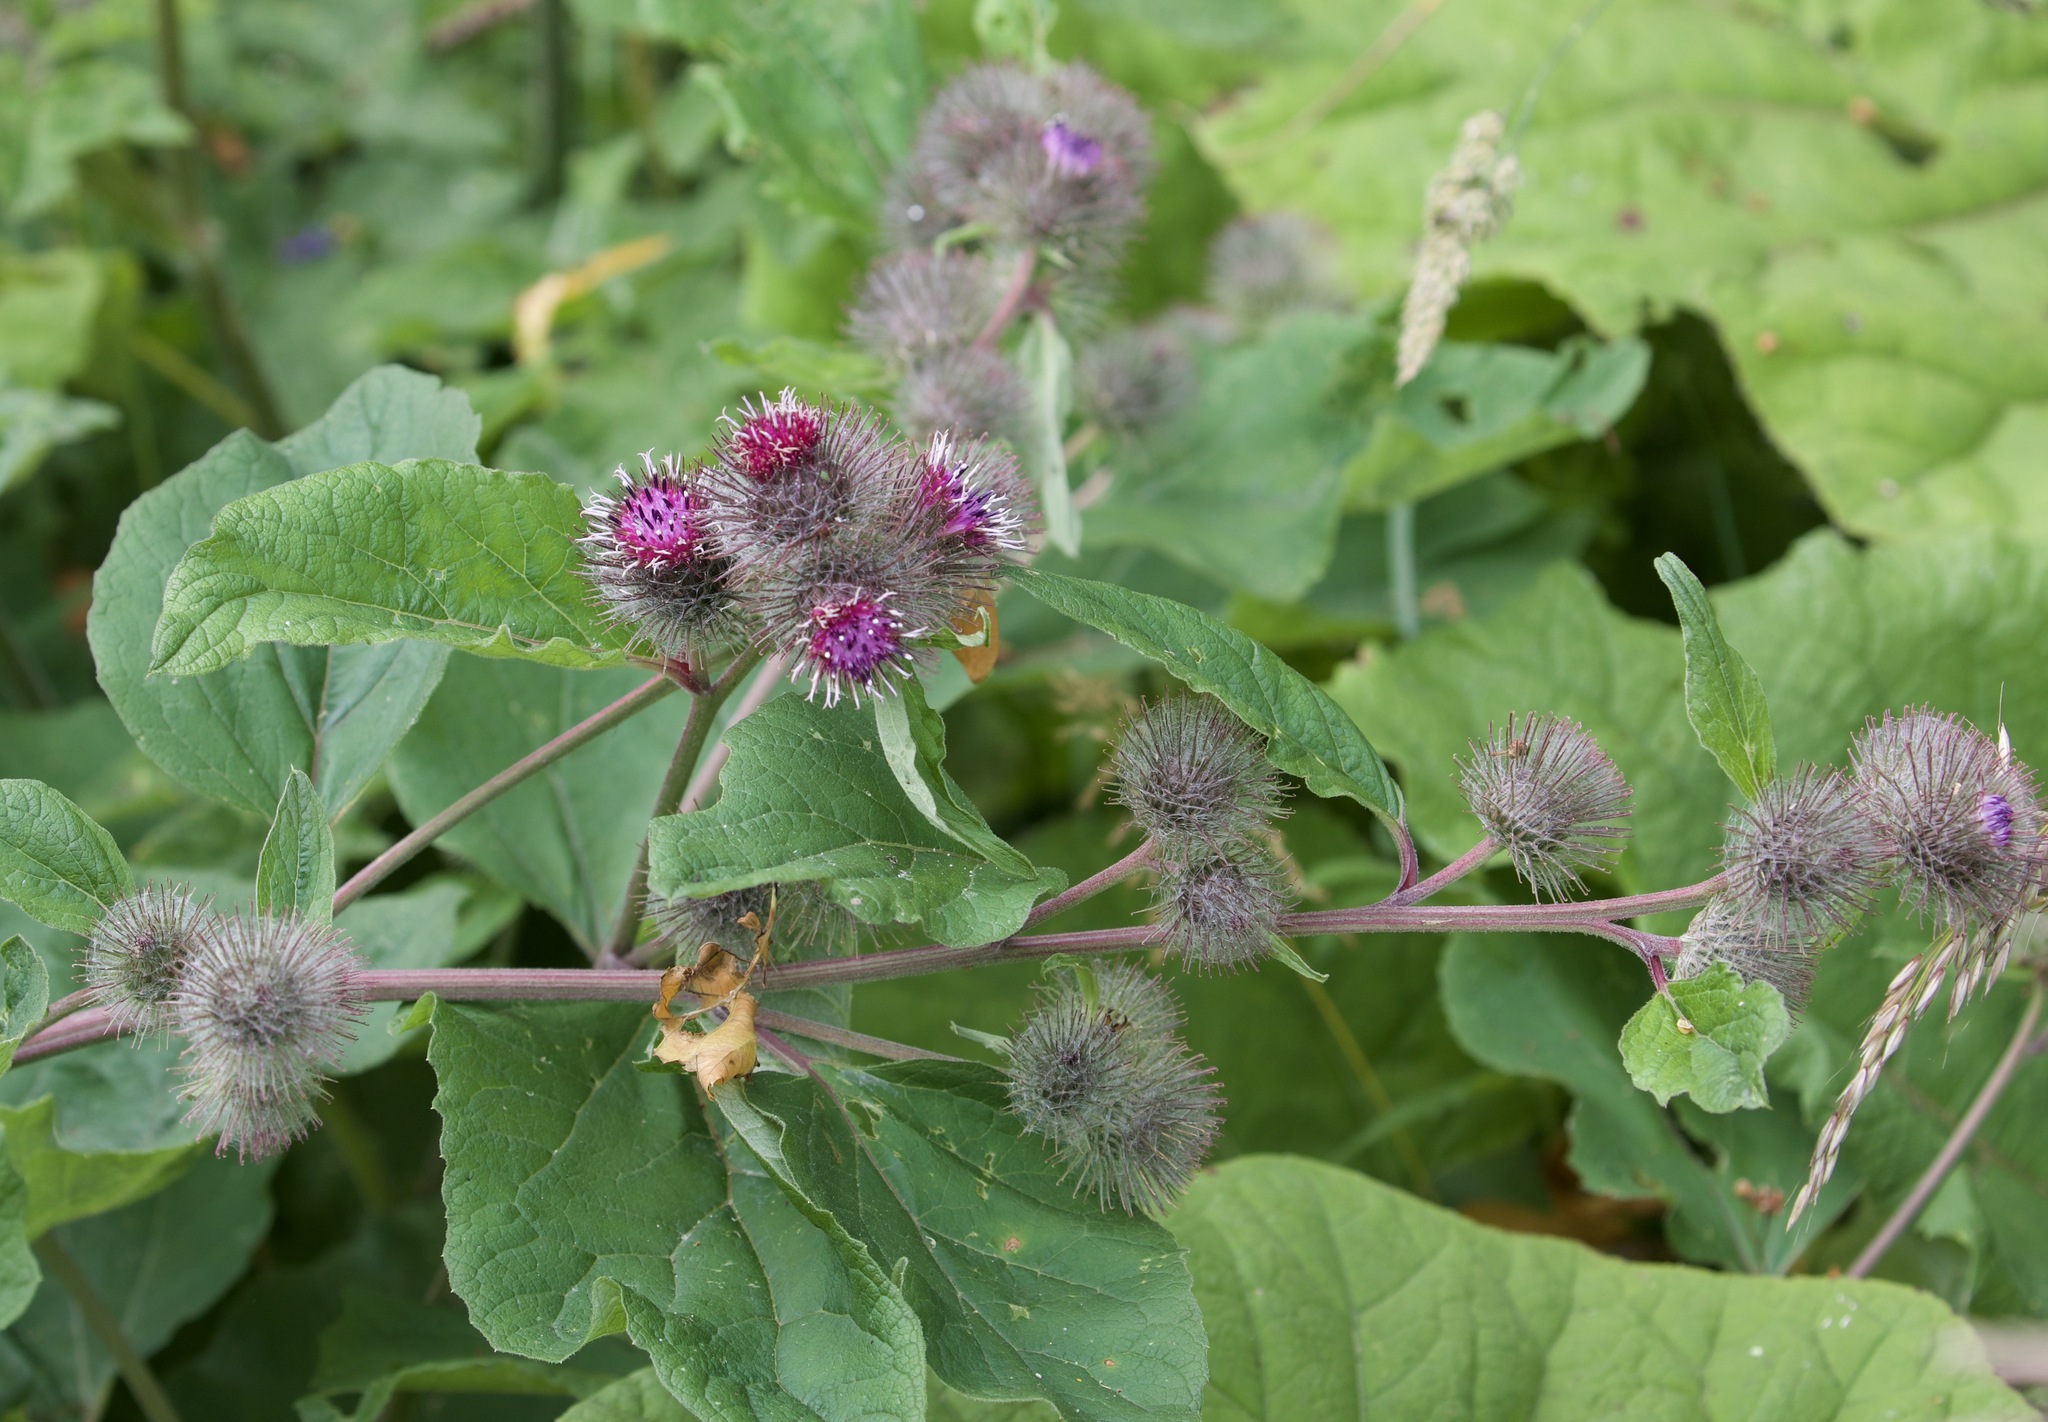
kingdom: Plantae
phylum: Tracheophyta
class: Magnoliopsida
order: Asterales
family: Asteraceae
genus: Arctium
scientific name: Arctium minus
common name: Lesser burdock
